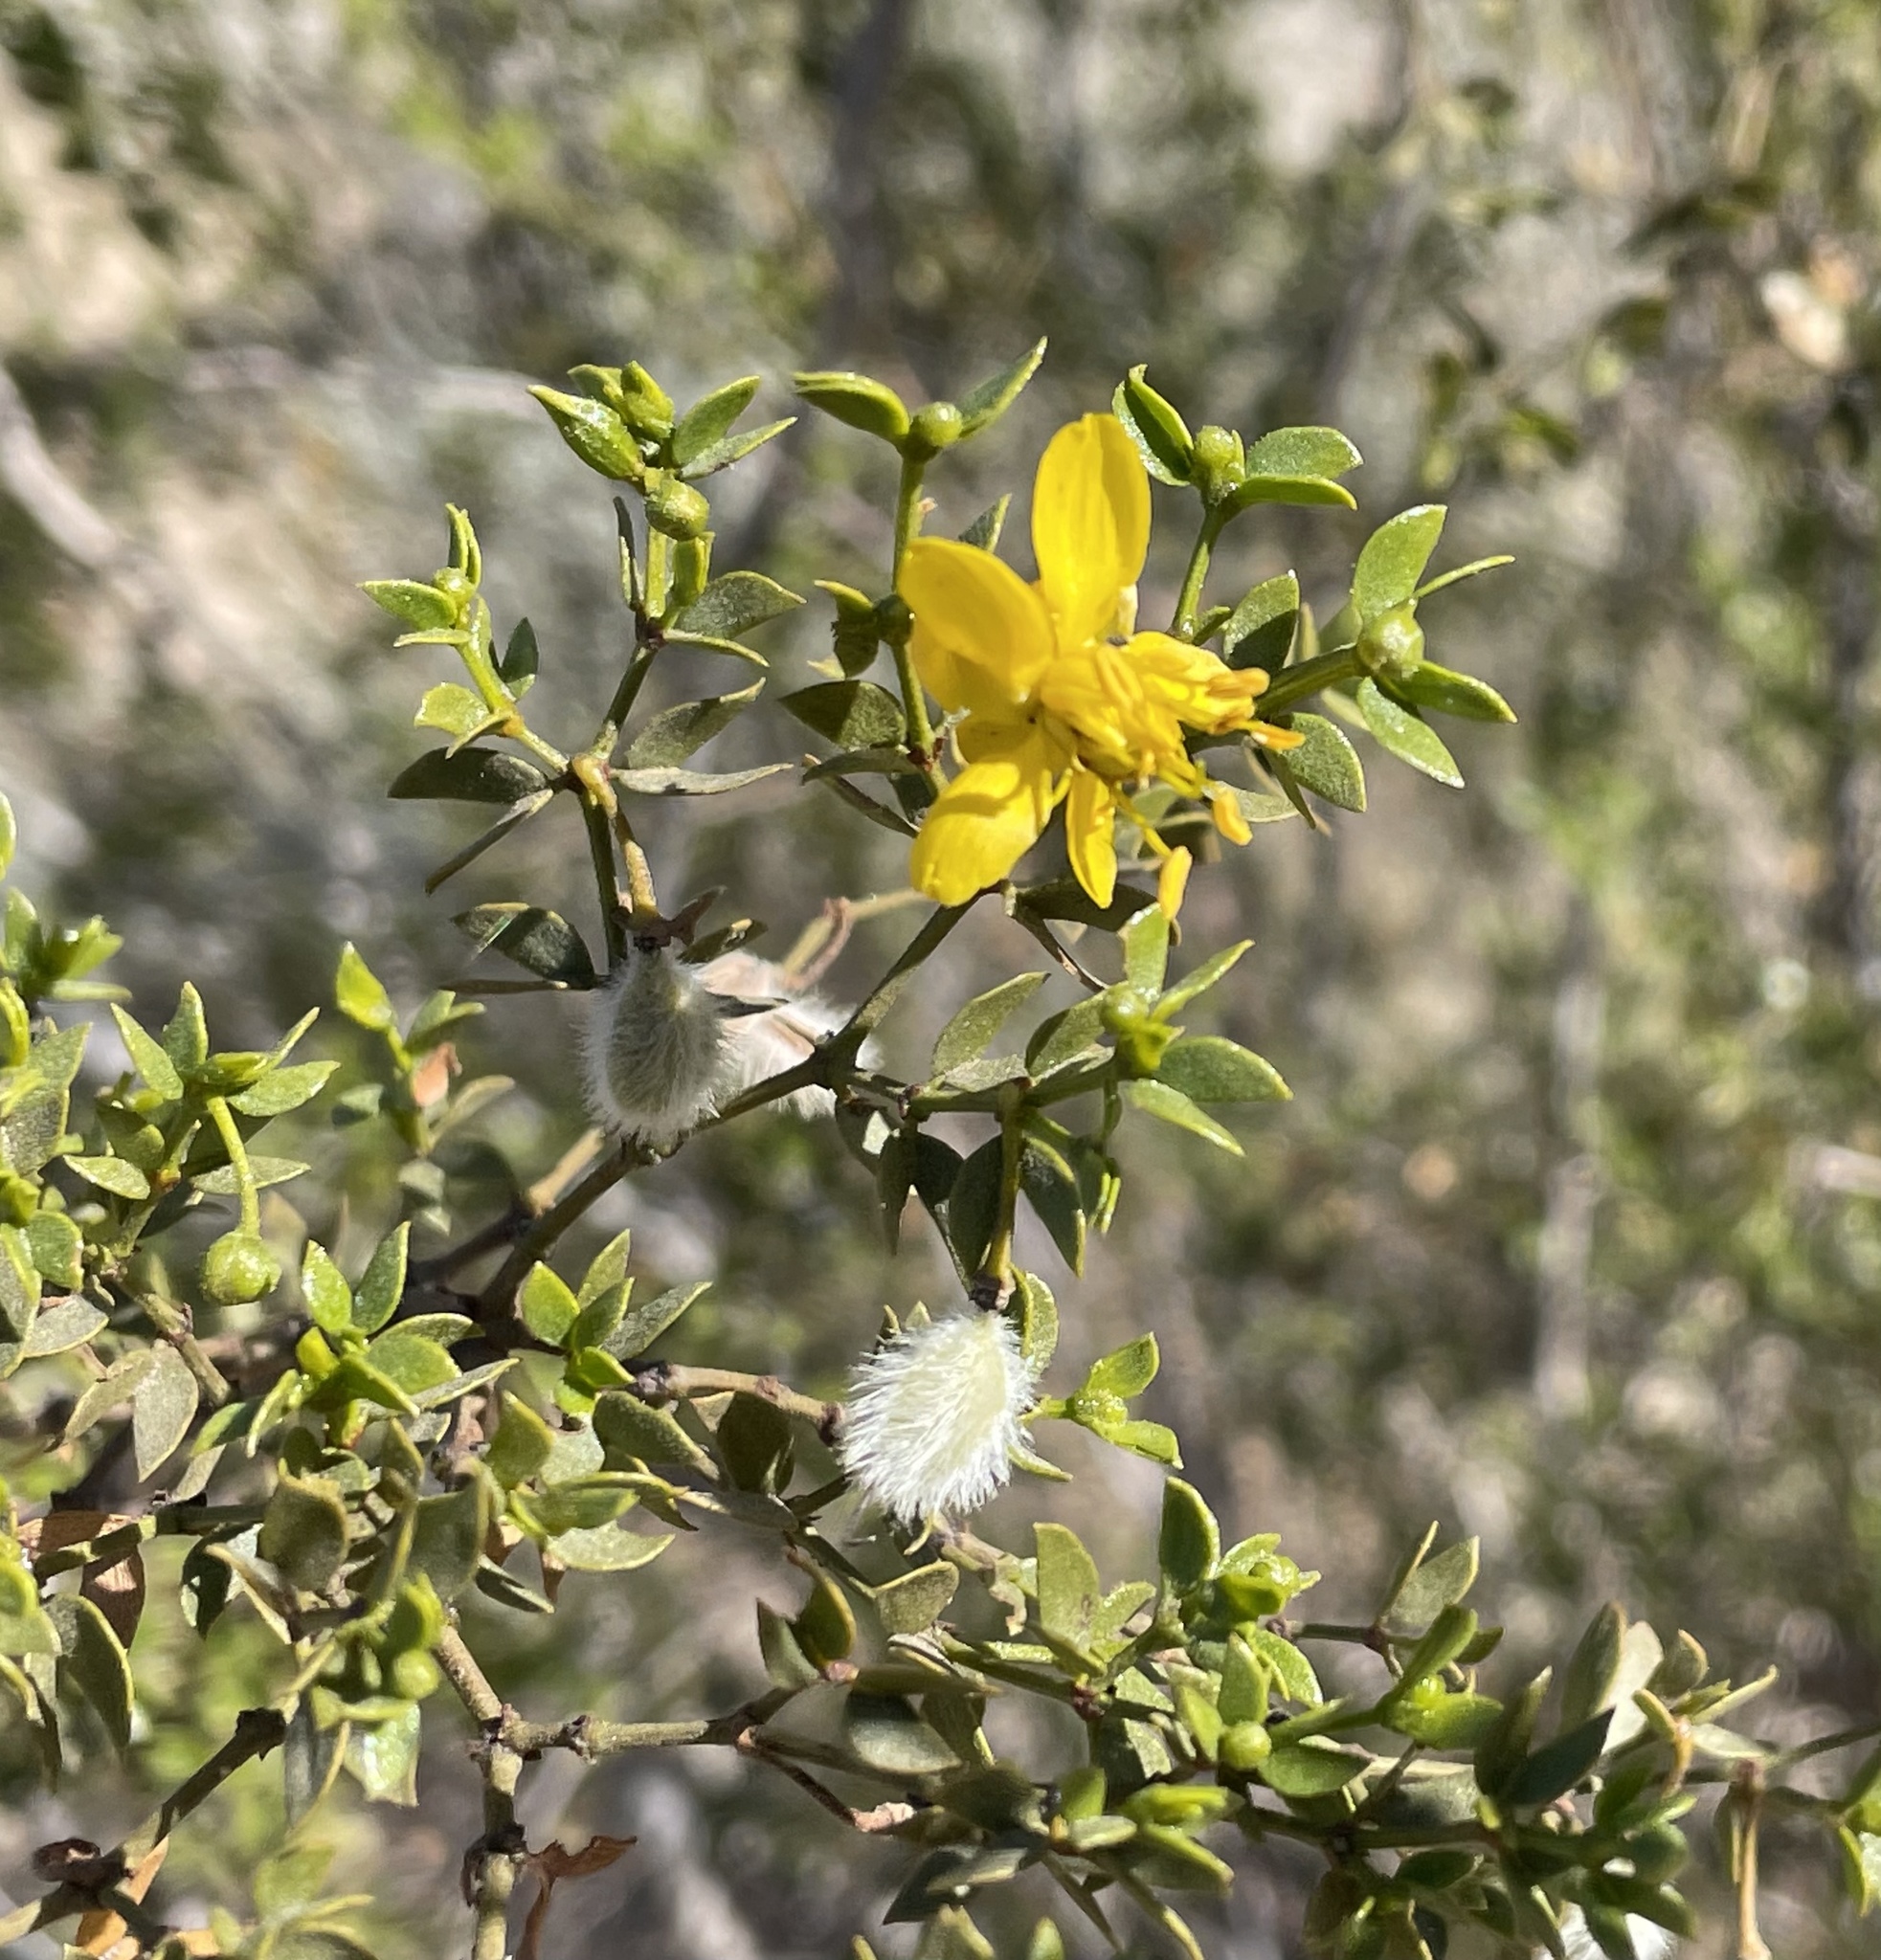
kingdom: Plantae
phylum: Tracheophyta
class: Magnoliopsida
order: Zygophyllales
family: Zygophyllaceae
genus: Larrea
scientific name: Larrea tridentata
